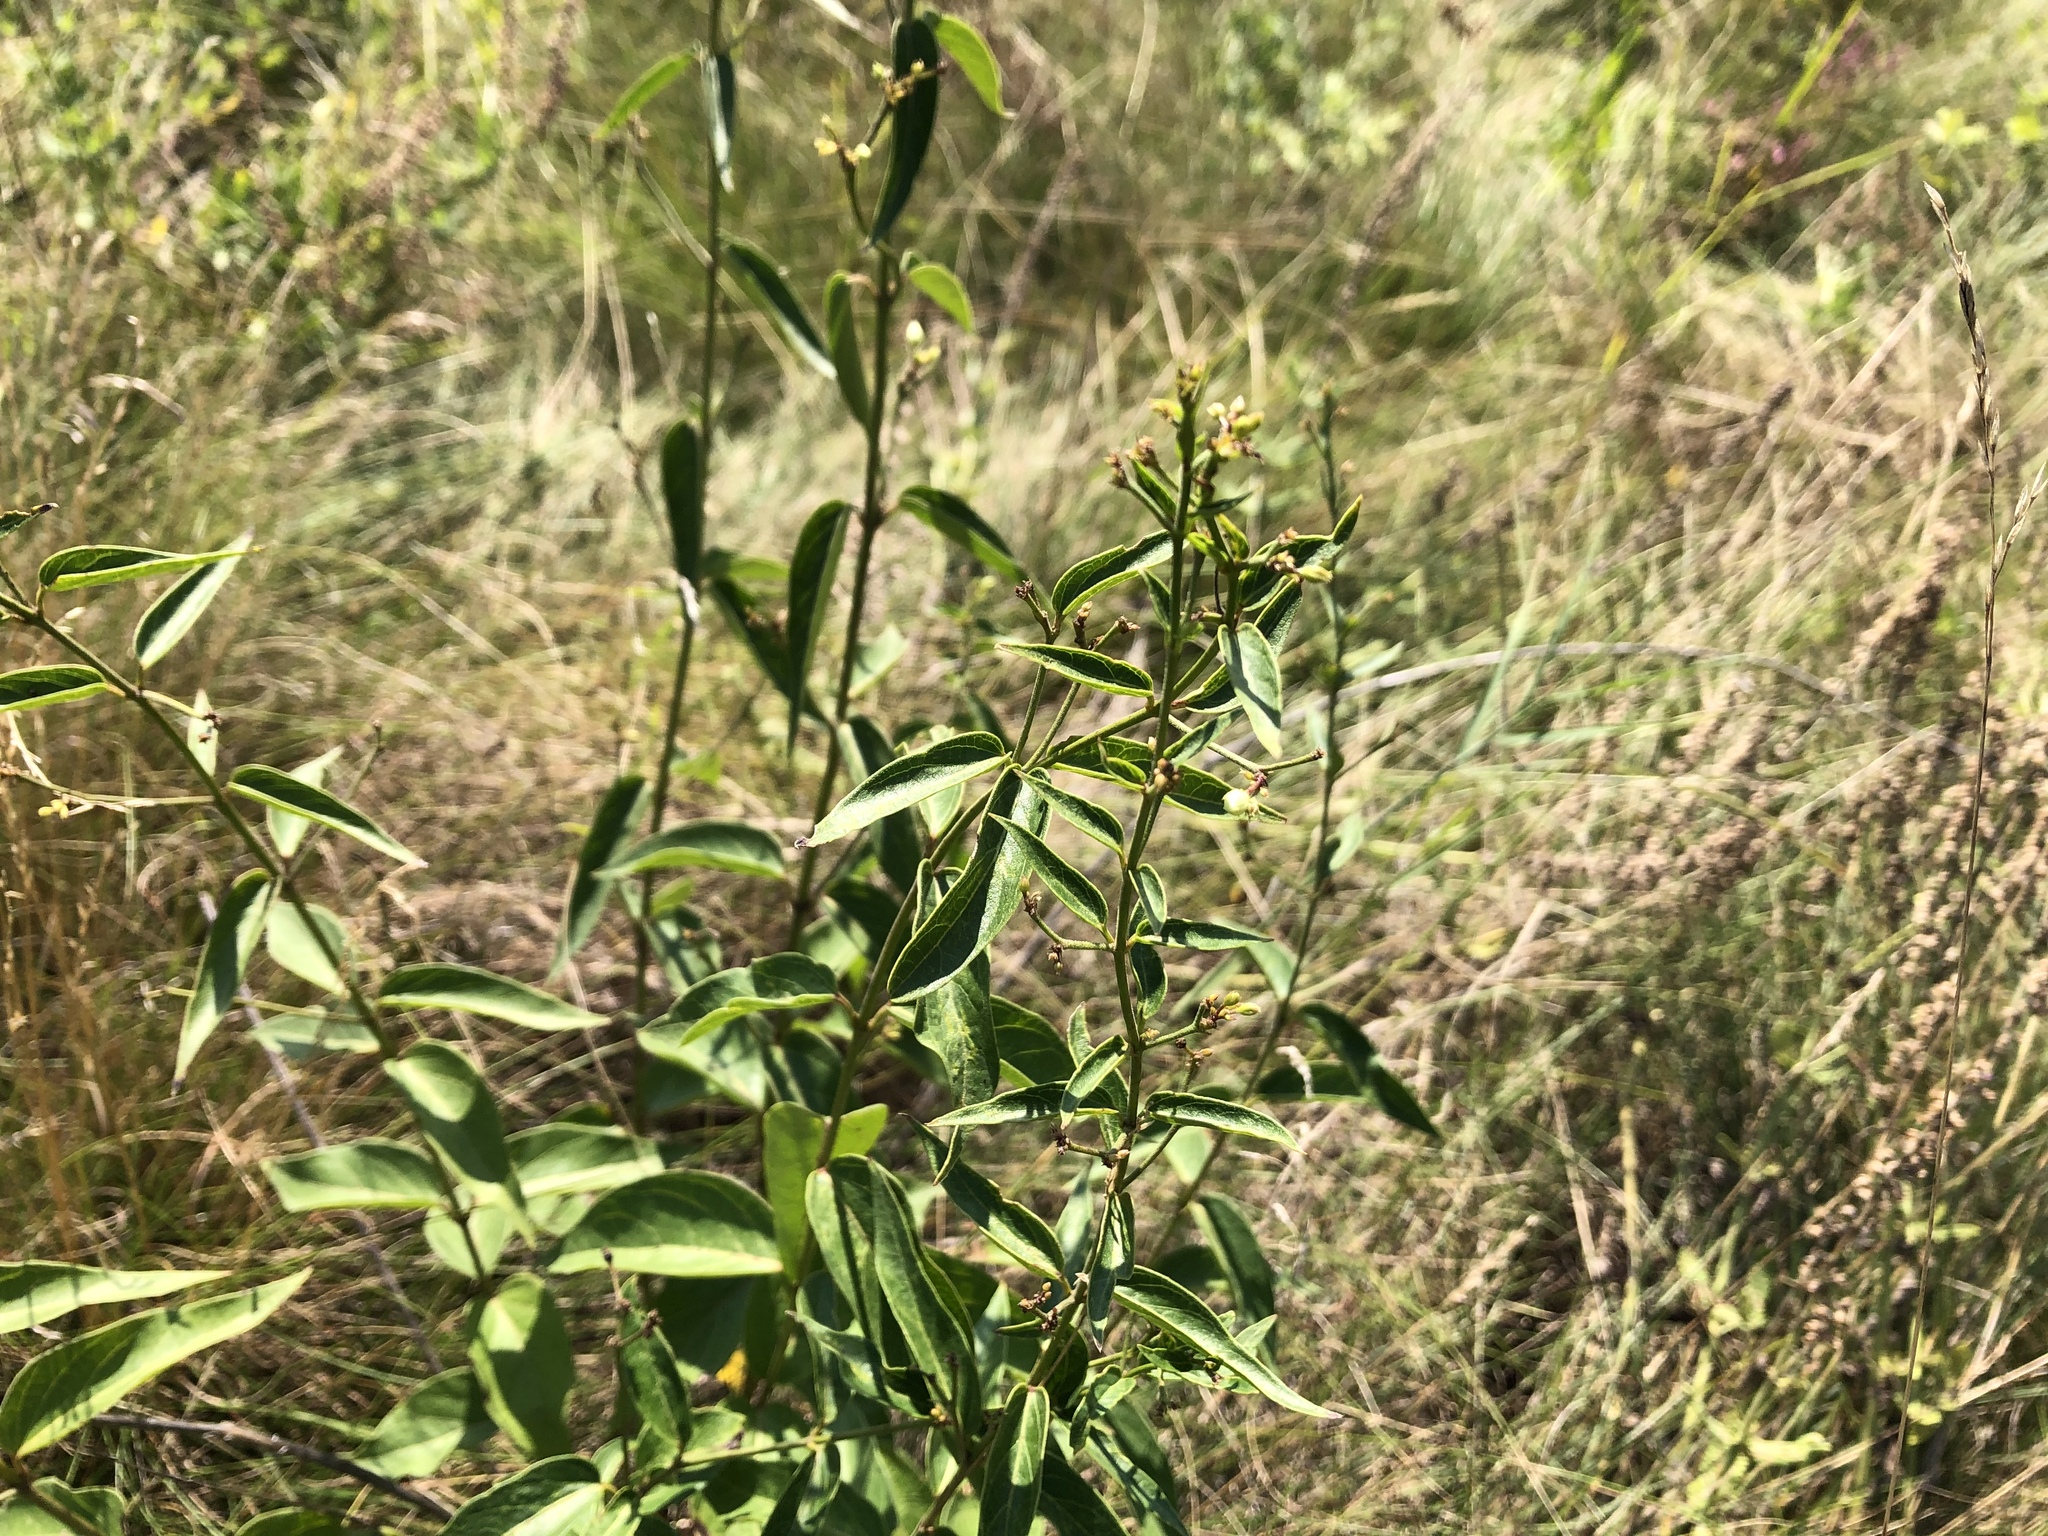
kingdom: Plantae
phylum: Tracheophyta
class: Magnoliopsida
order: Gentianales
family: Apocynaceae
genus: Vincetoxicum
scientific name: Vincetoxicum hirundinaria
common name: White swallowwort
